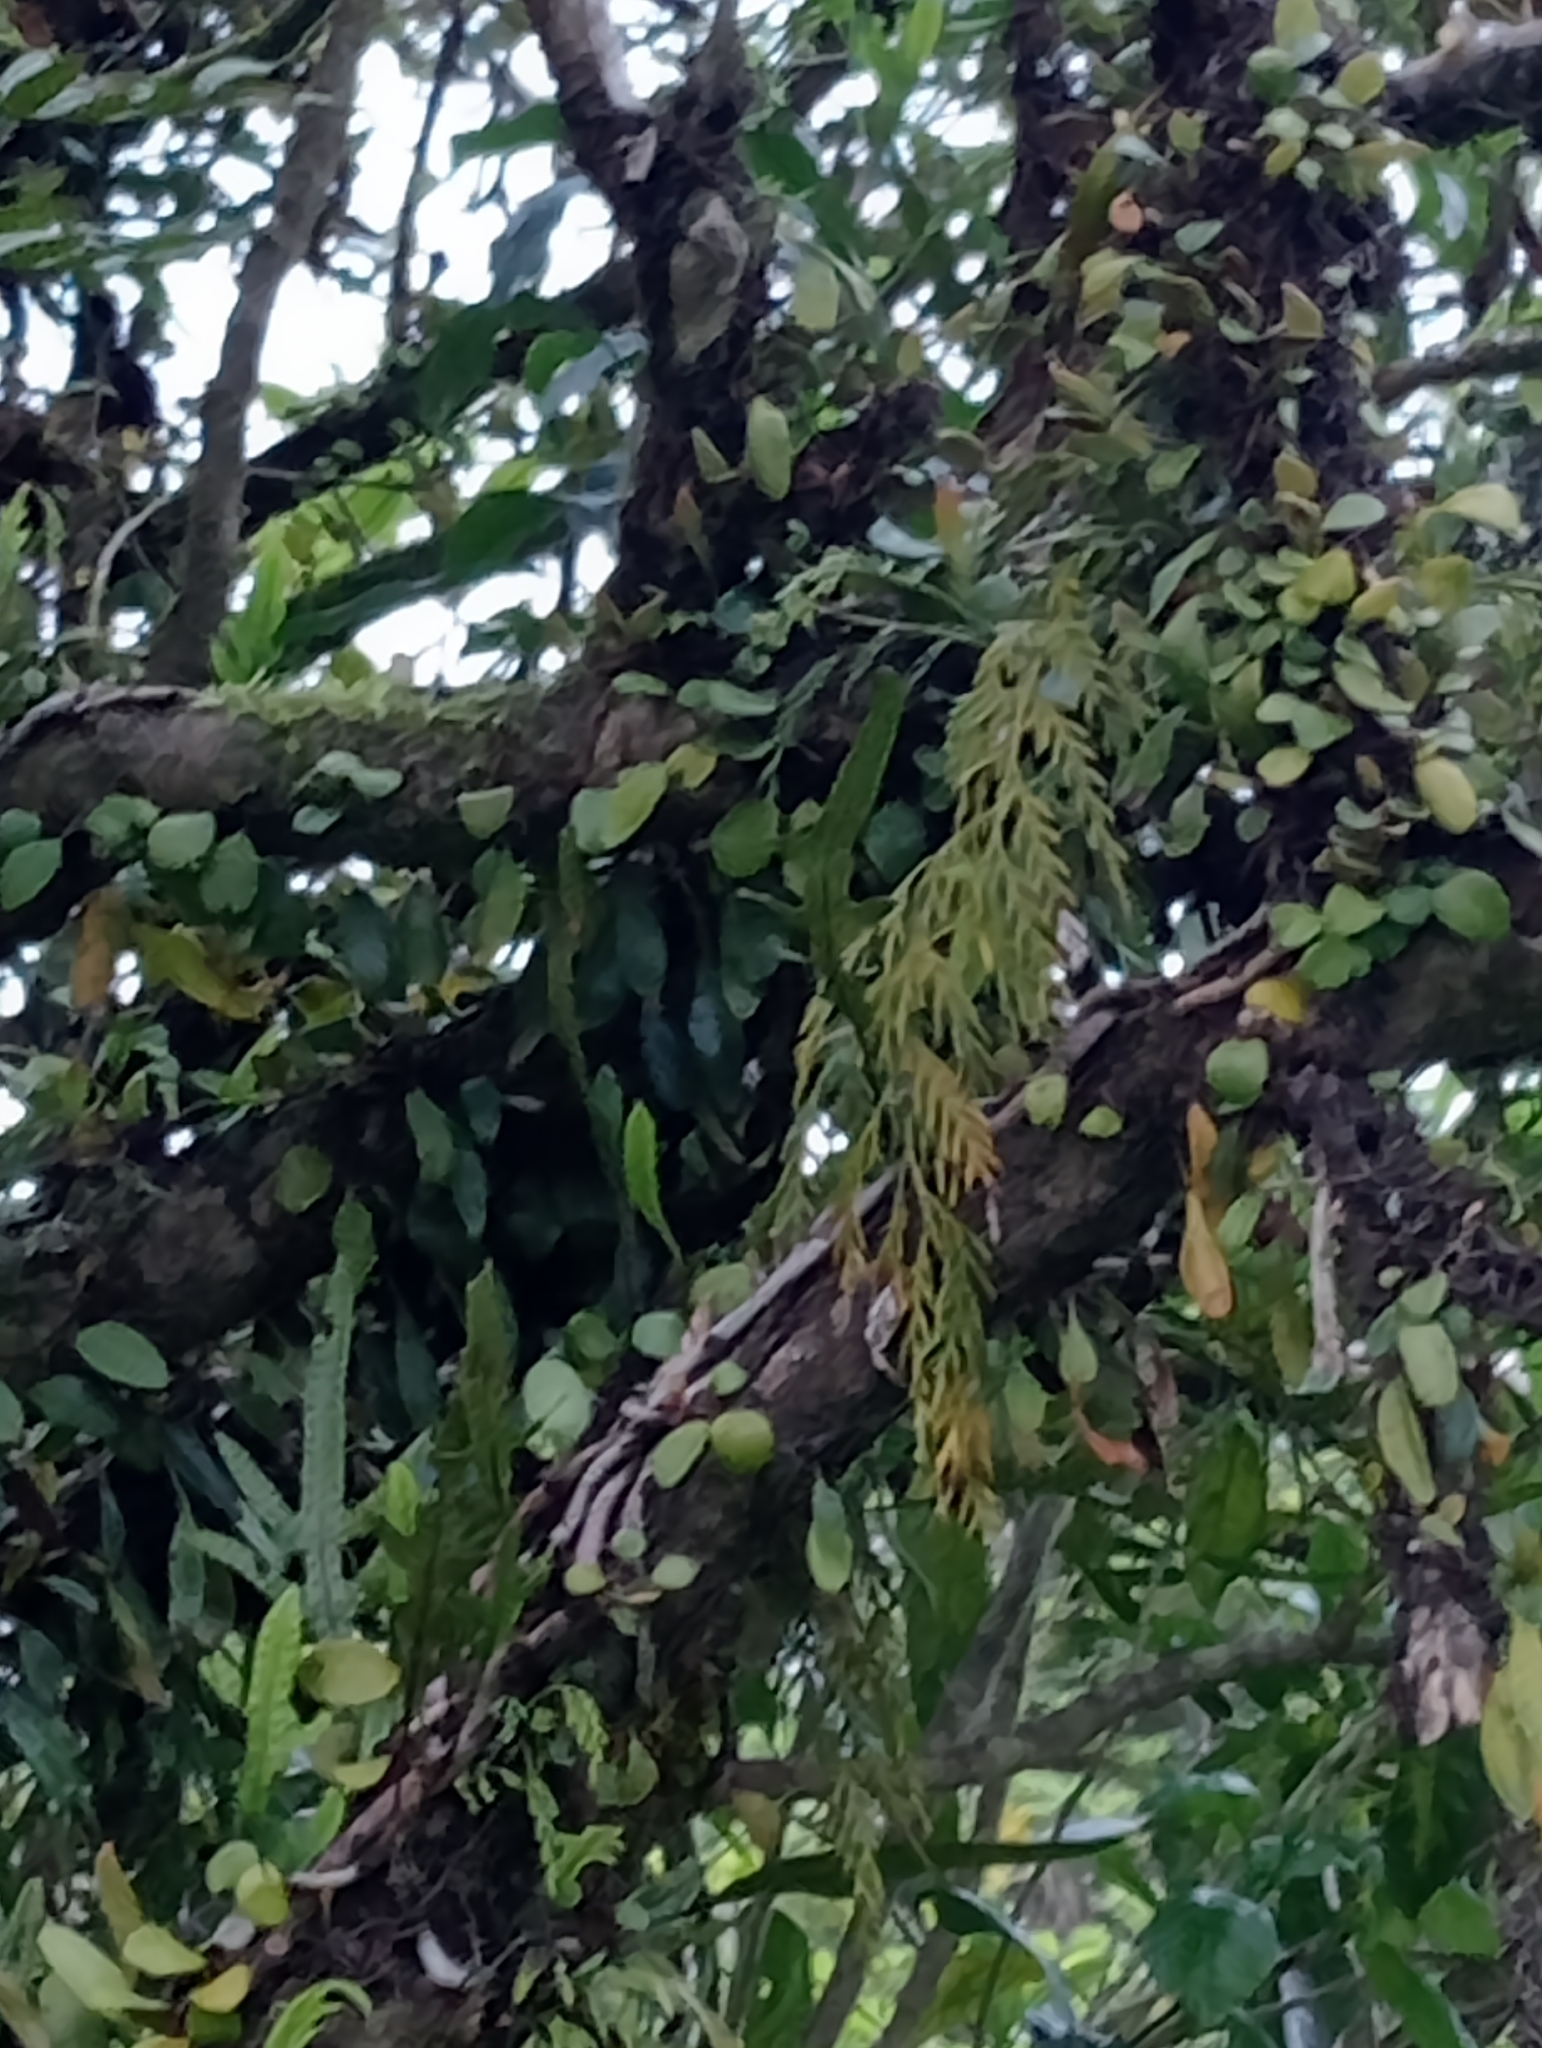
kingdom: Plantae
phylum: Tracheophyta
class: Polypodiopsida
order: Polypodiales
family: Polypodiaceae
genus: Pyrrosia
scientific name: Pyrrosia eleagnifolia
